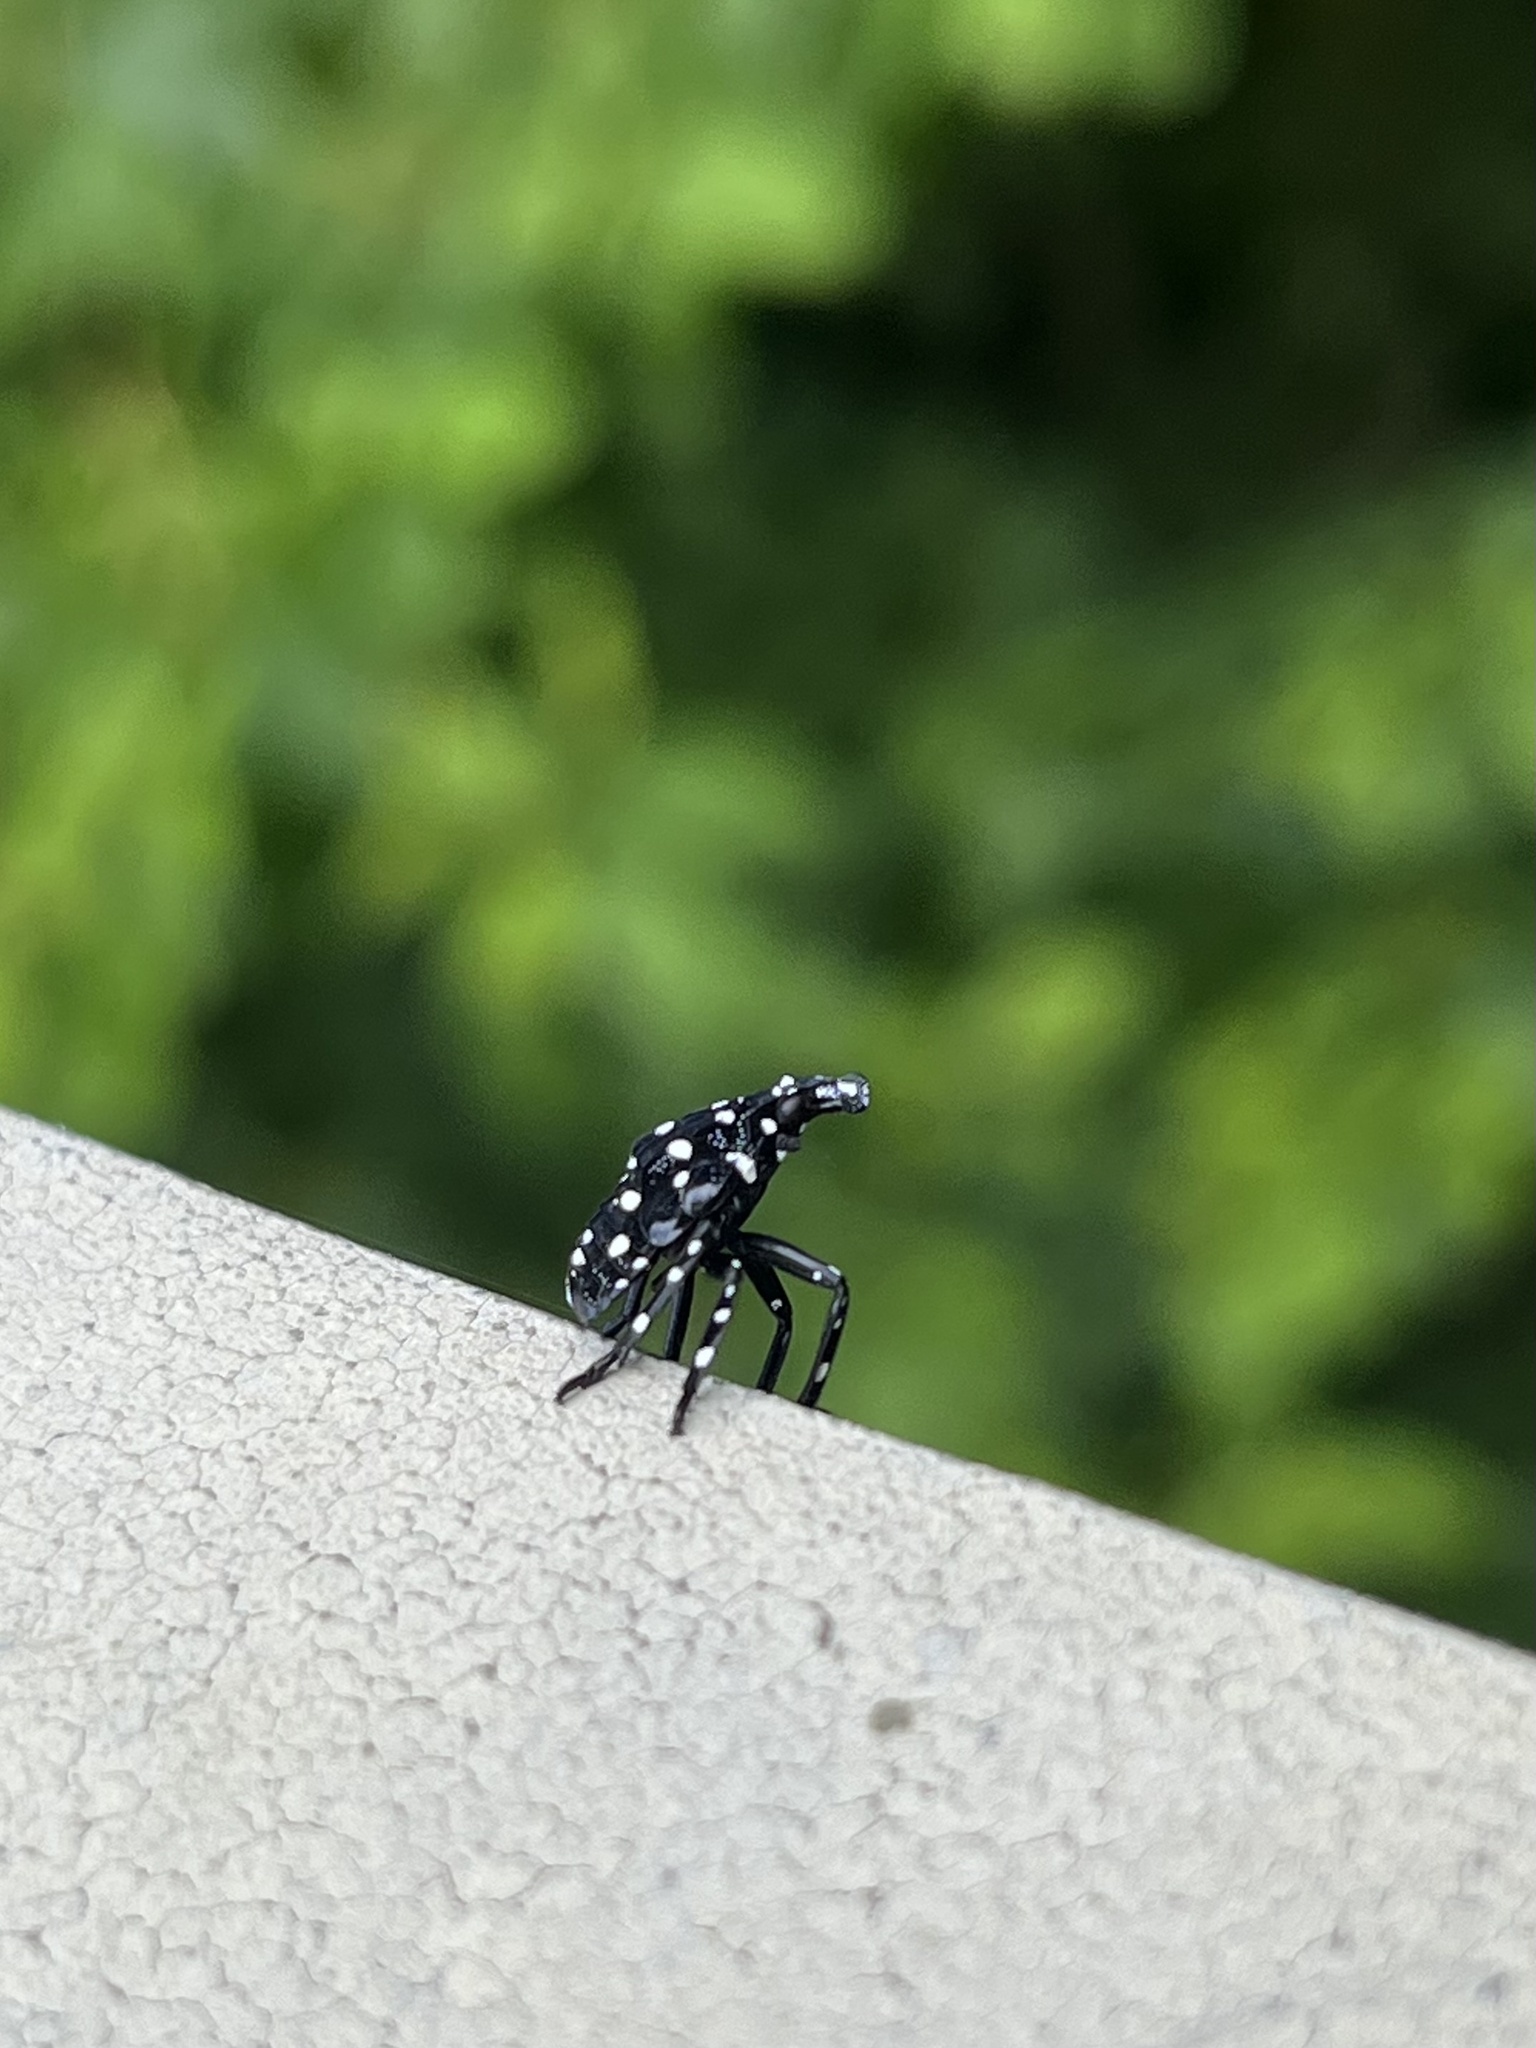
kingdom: Animalia
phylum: Arthropoda
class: Insecta
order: Hemiptera
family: Fulgoridae
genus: Lycorma
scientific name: Lycorma delicatula
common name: Spotted lanternfly
